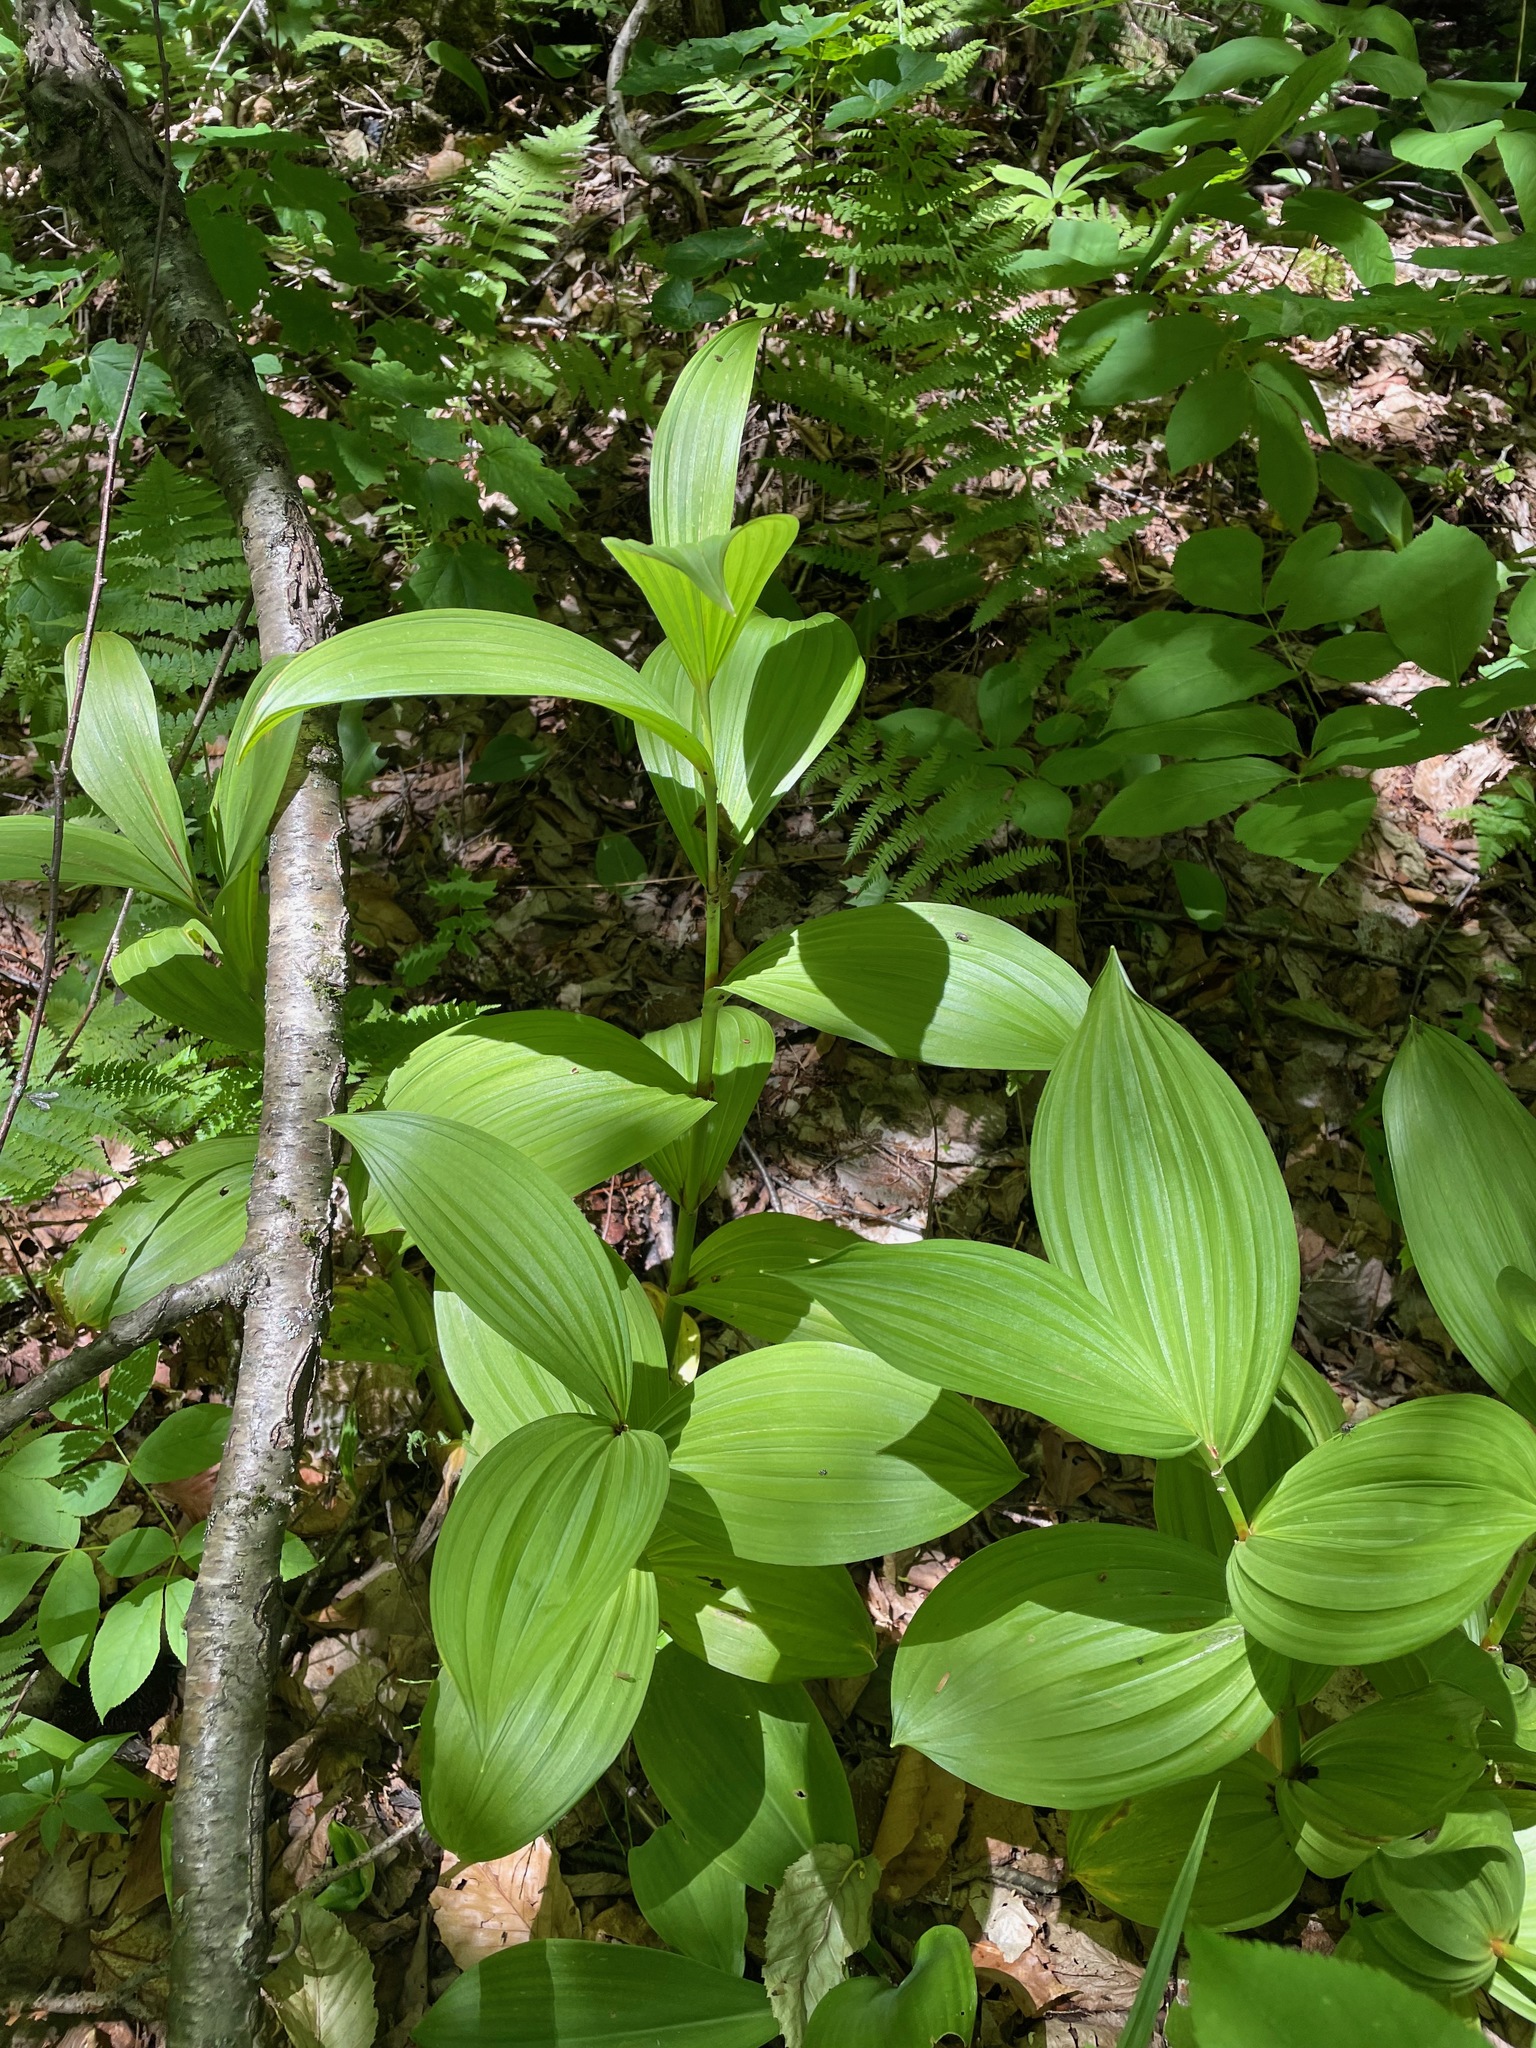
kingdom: Plantae
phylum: Tracheophyta
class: Liliopsida
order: Liliales
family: Melanthiaceae
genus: Veratrum
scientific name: Veratrum viride
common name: American false hellebore
